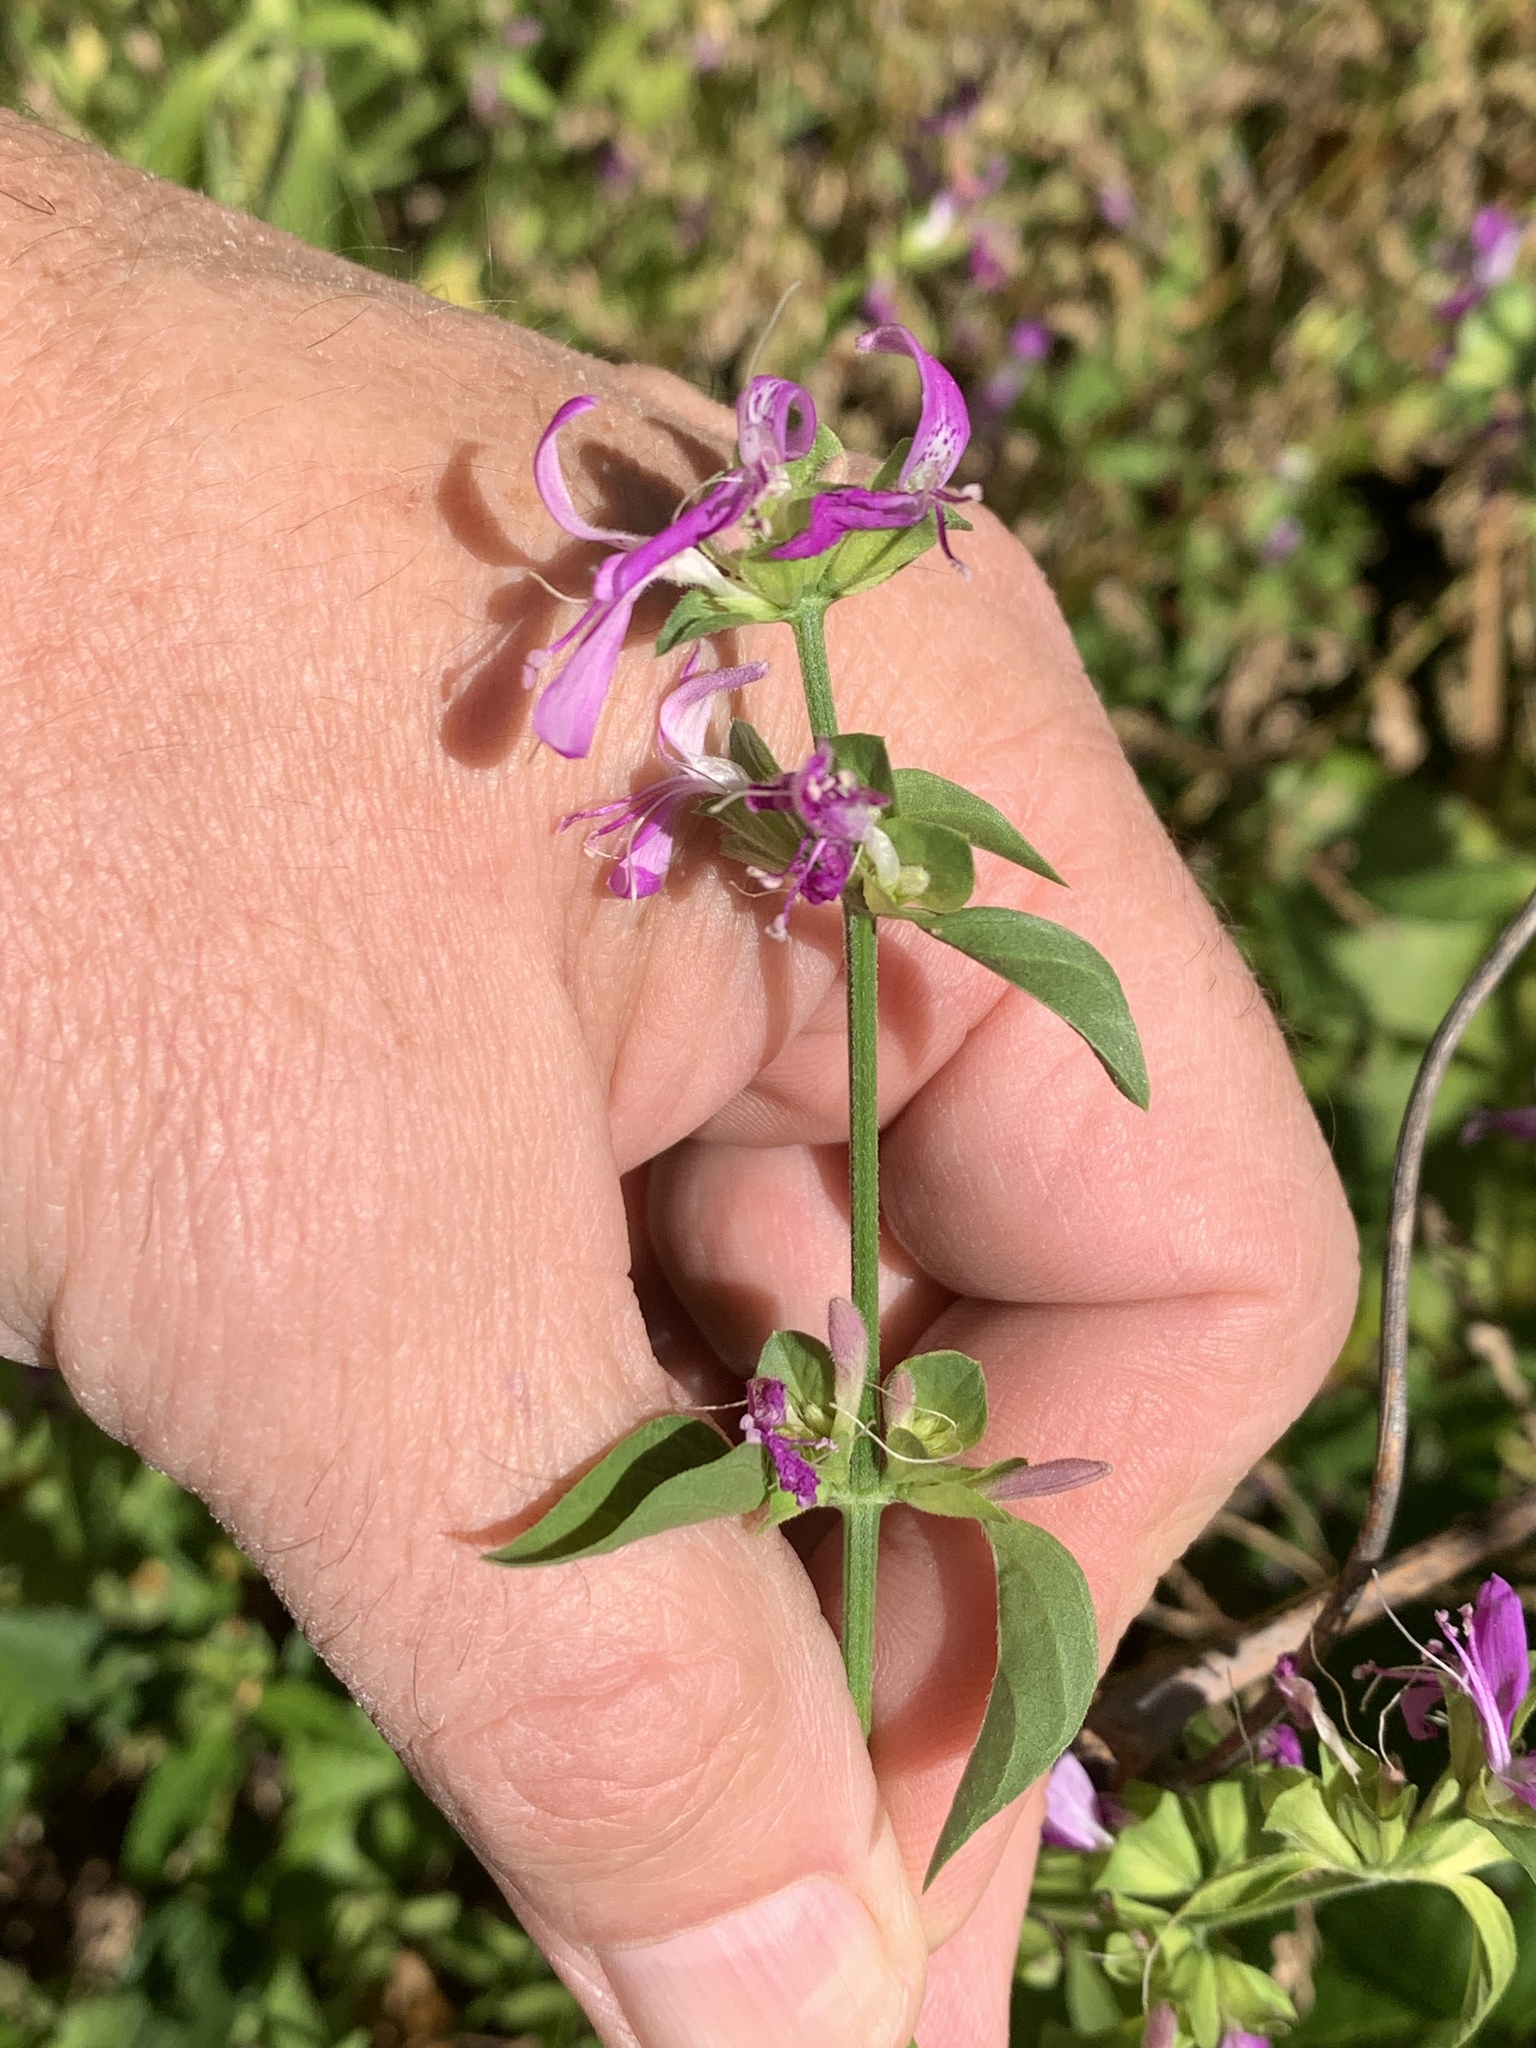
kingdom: Plantae
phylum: Tracheophyta
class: Magnoliopsida
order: Lamiales
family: Acanthaceae
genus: Dicliptera
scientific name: Dicliptera brachiata
